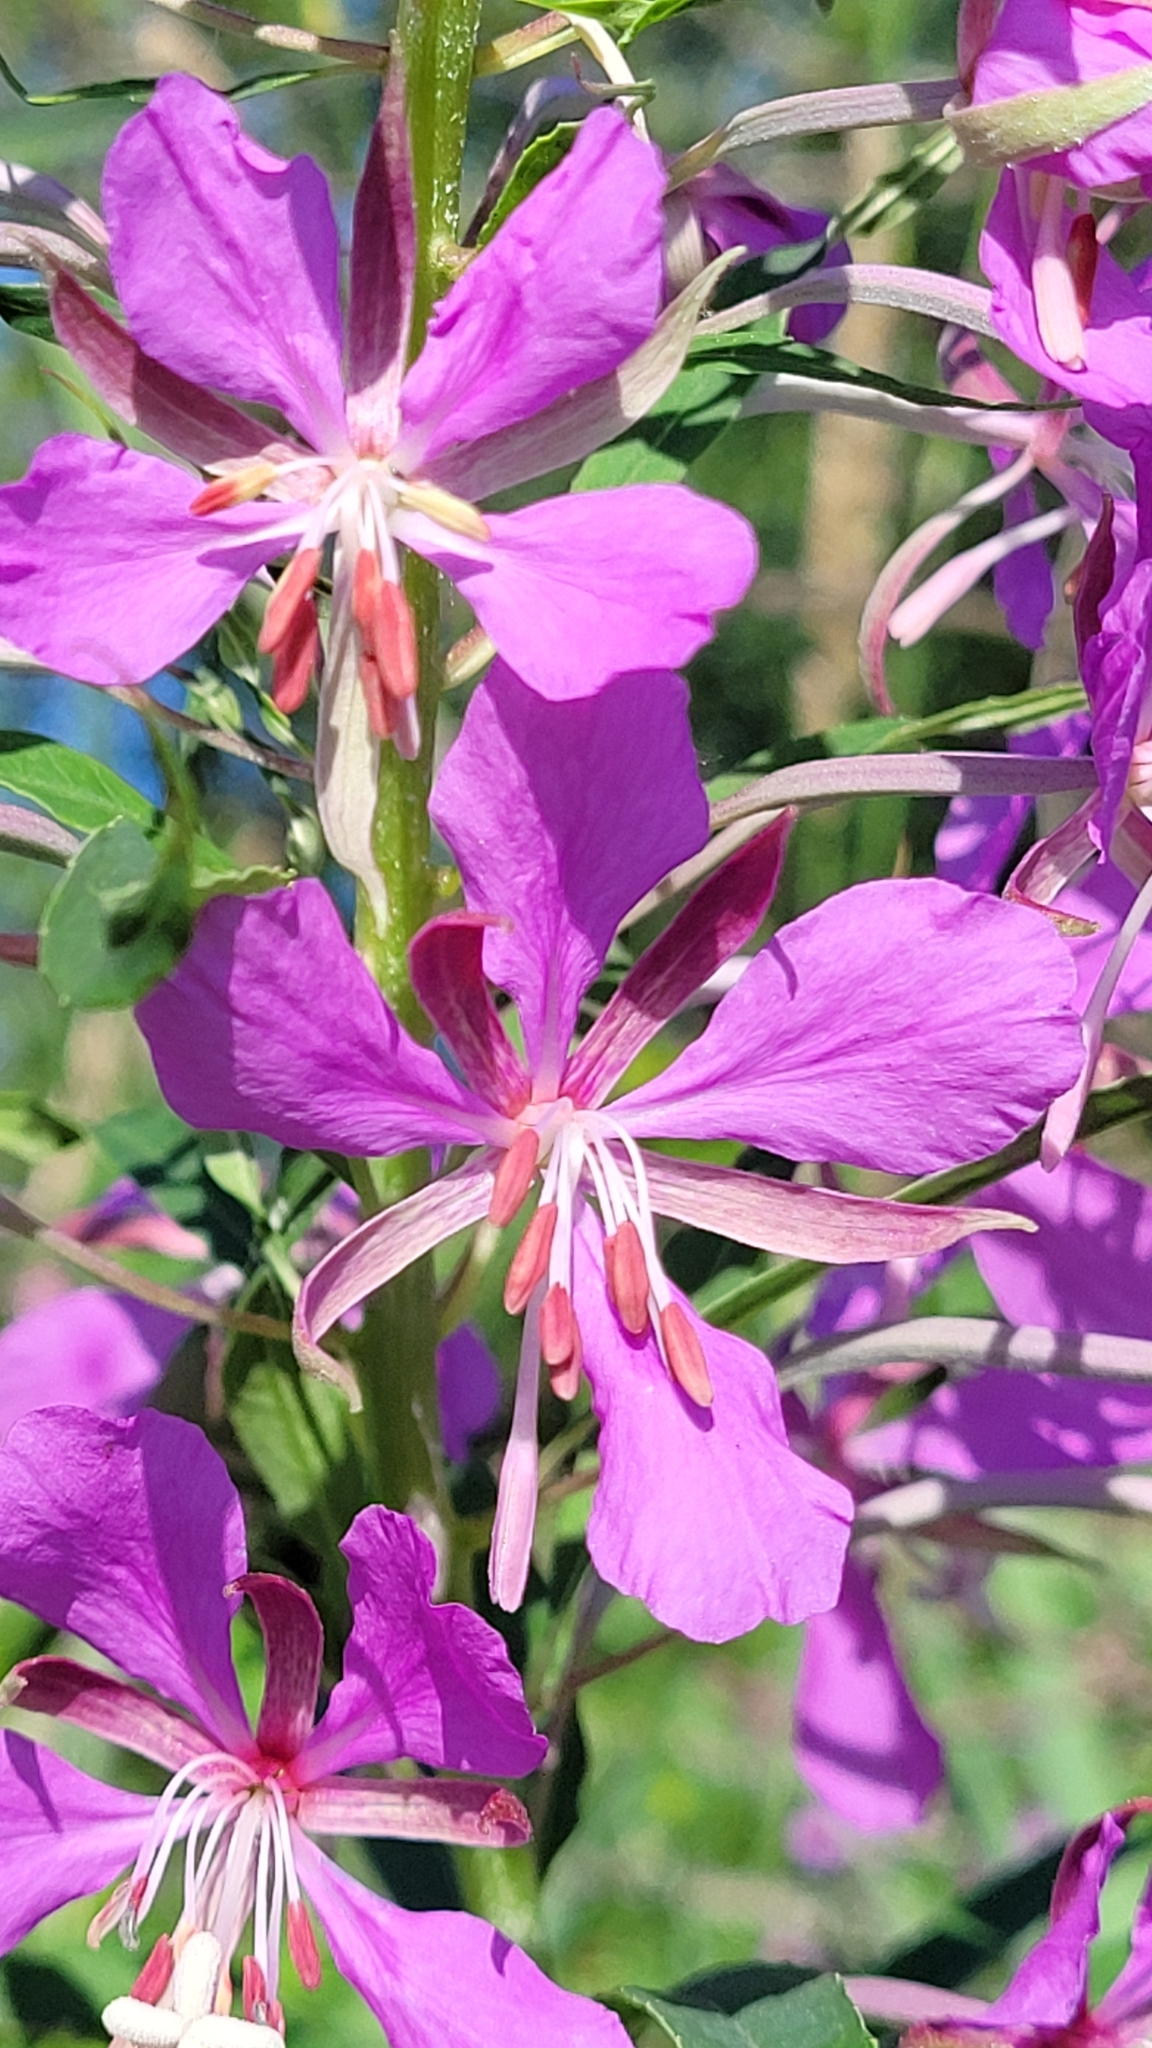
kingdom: Plantae
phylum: Tracheophyta
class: Magnoliopsida
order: Myrtales
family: Onagraceae
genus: Chamaenerion
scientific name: Chamaenerion angustifolium
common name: Fireweed
